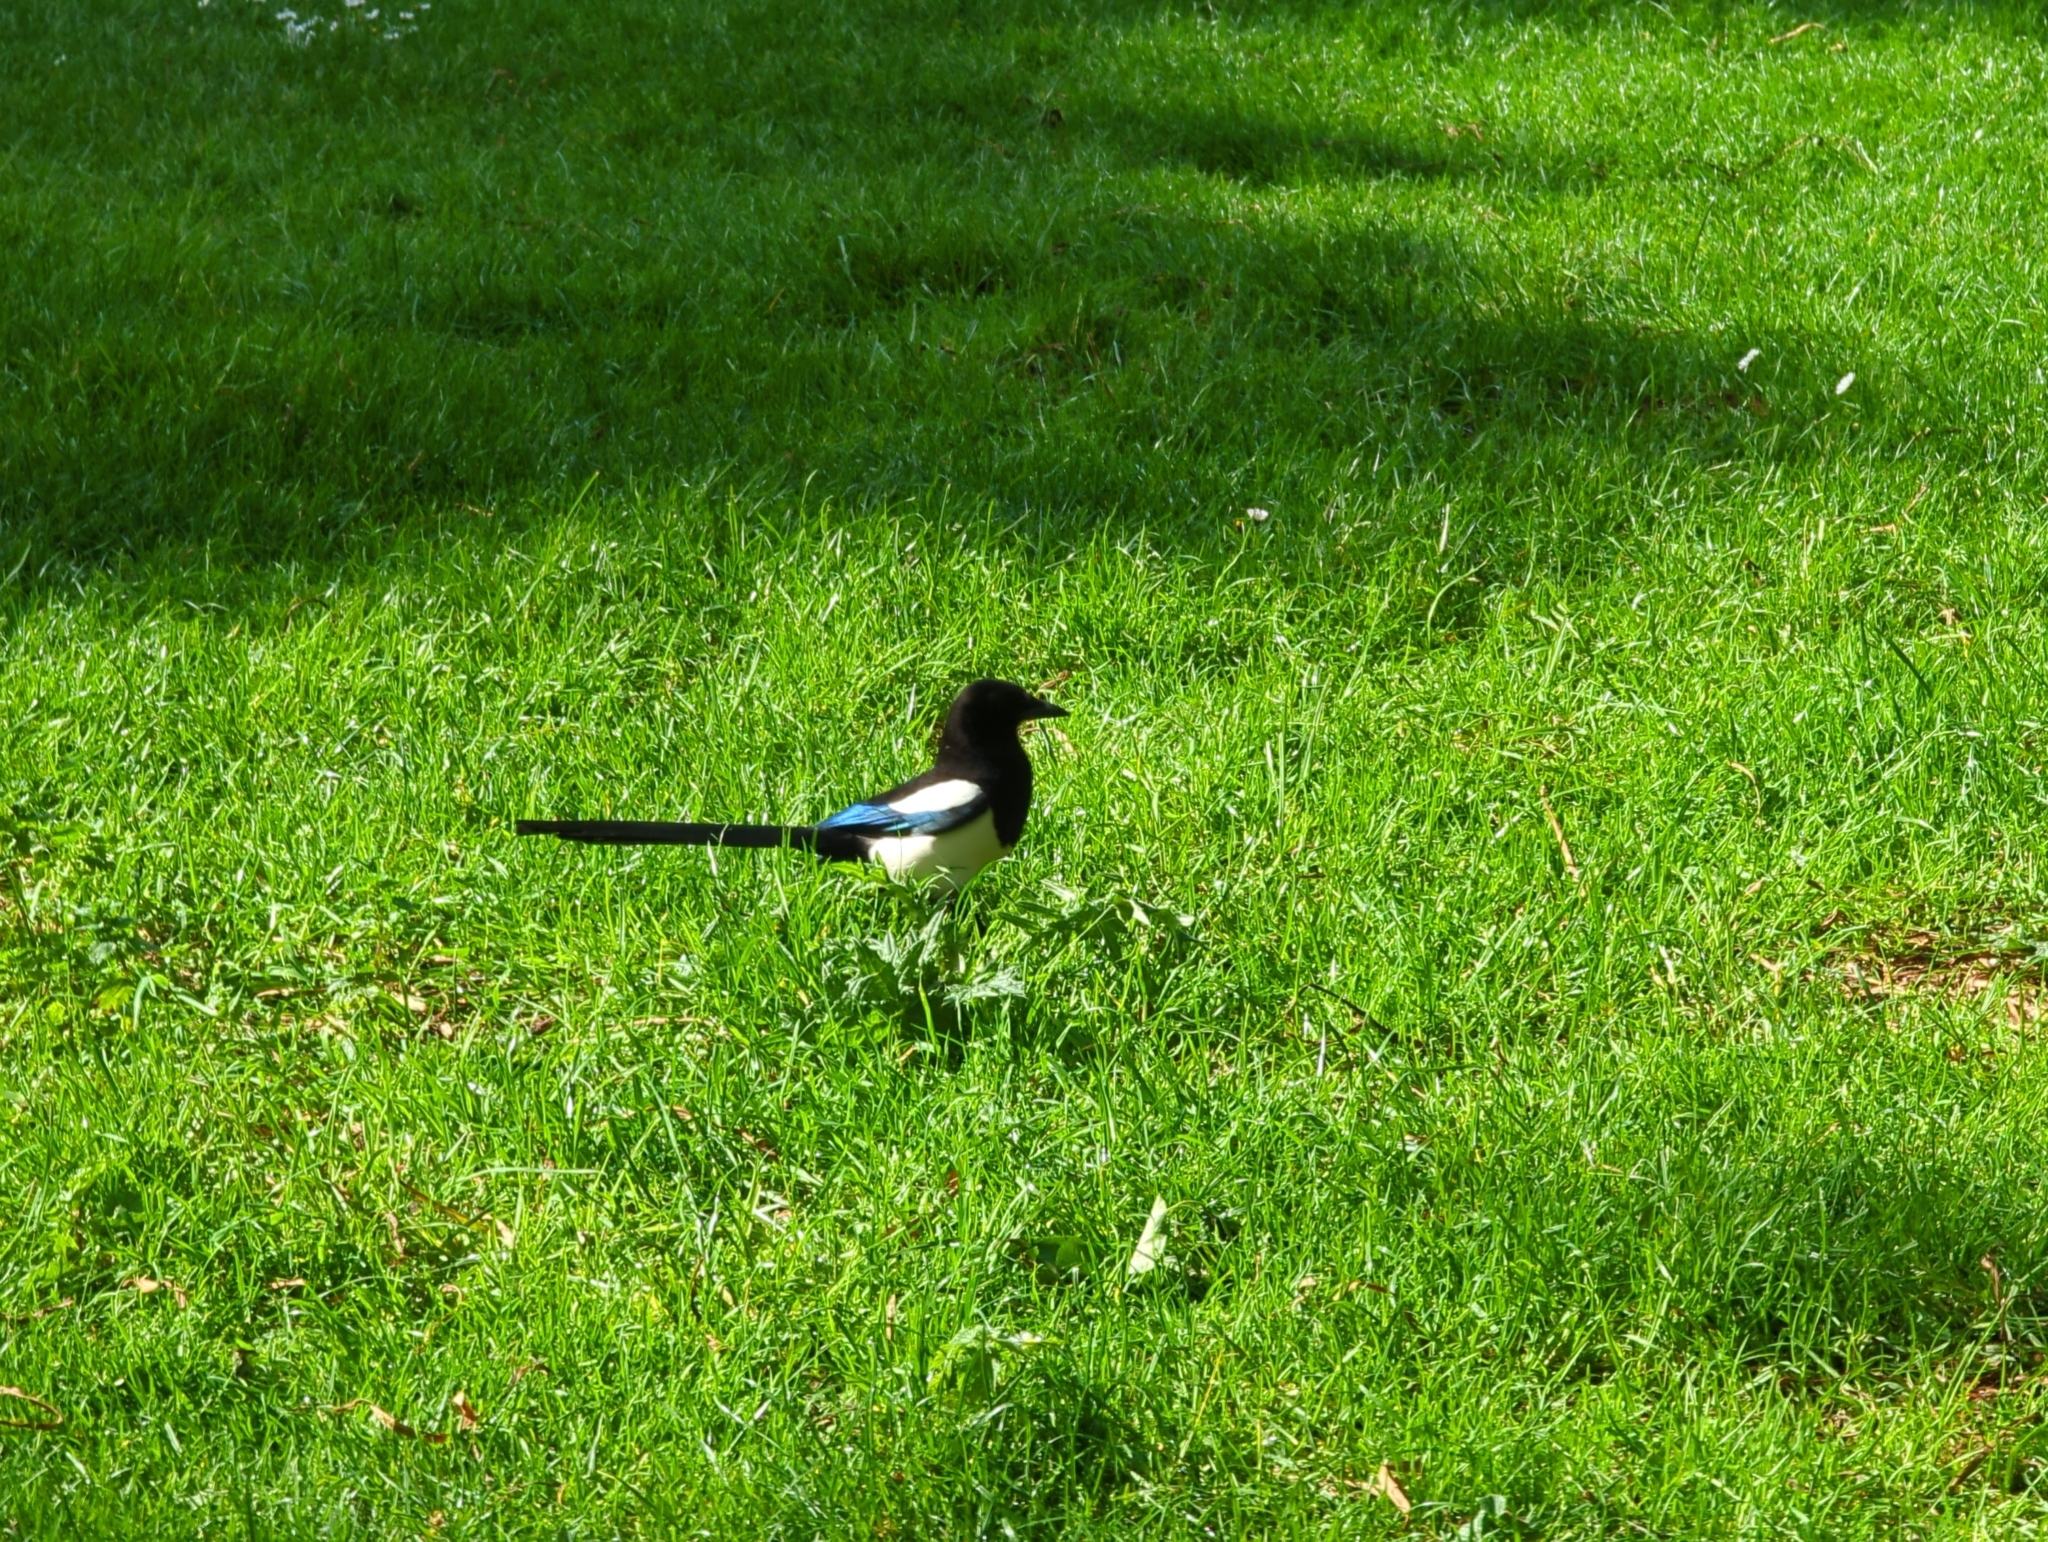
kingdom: Animalia
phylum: Chordata
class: Aves
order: Passeriformes
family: Corvidae
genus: Pica
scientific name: Pica pica
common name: Eurasian magpie
